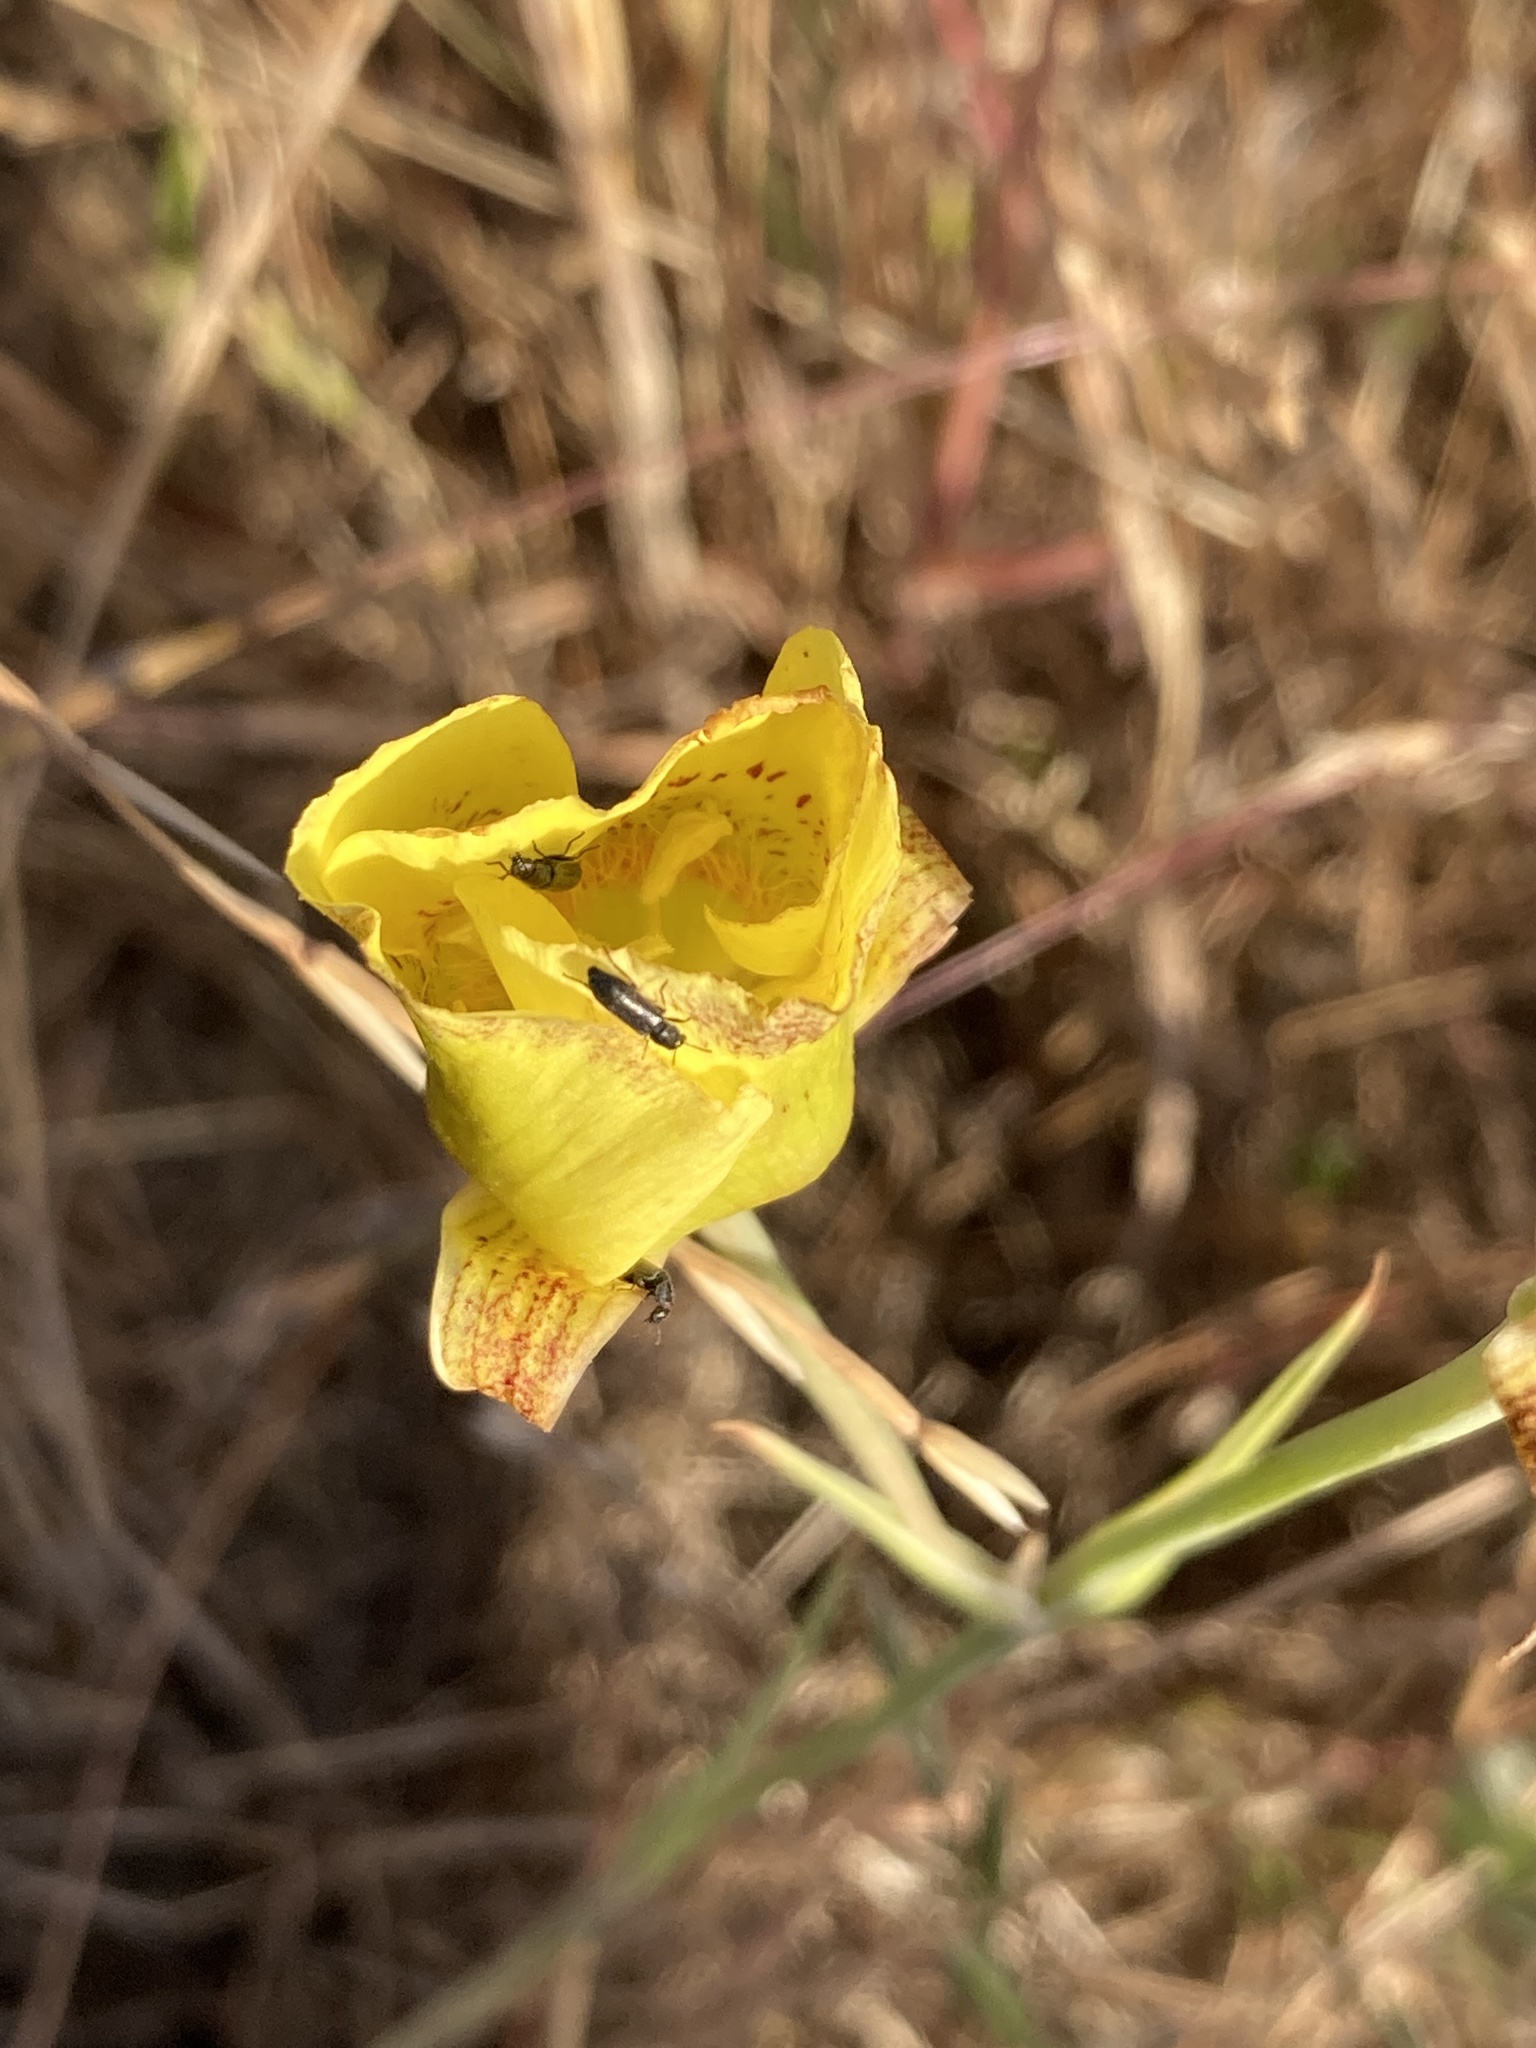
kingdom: Plantae
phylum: Tracheophyta
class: Liliopsida
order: Liliales
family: Liliaceae
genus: Calochortus
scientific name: Calochortus luteus
